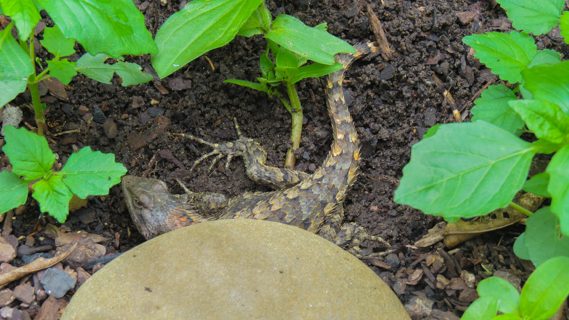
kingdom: Animalia
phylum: Chordata
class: Squamata
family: Phrynosomatidae
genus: Sceloporus
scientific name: Sceloporus olivaceus
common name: Texas spiny lizard
